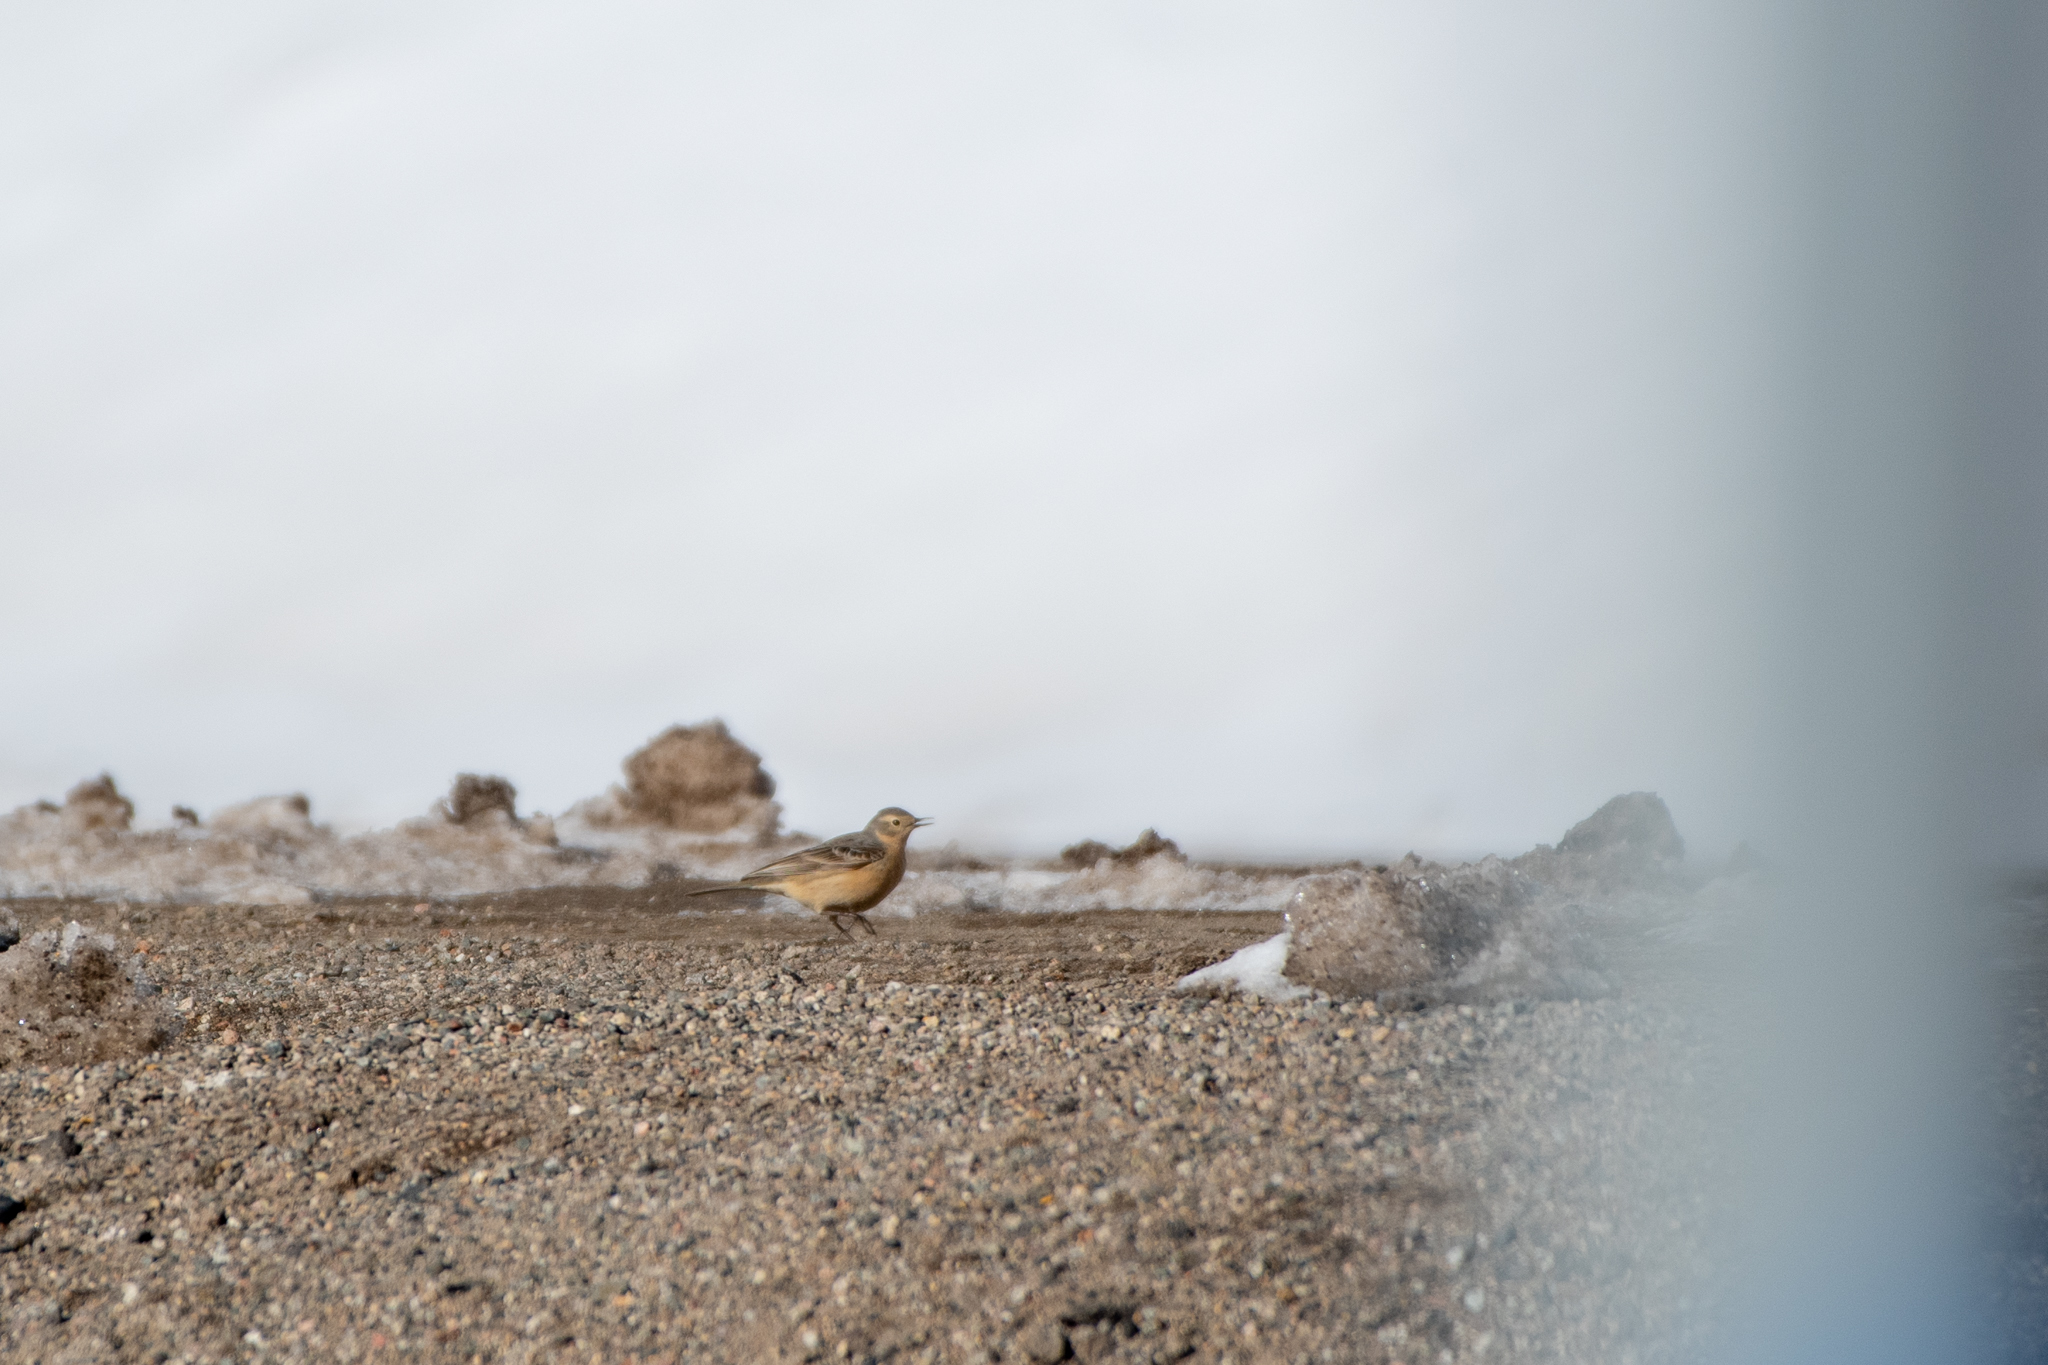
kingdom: Animalia
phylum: Chordata
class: Aves
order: Passeriformes
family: Motacillidae
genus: Anthus
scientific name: Anthus rubescens
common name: Buff-bellied pipit
